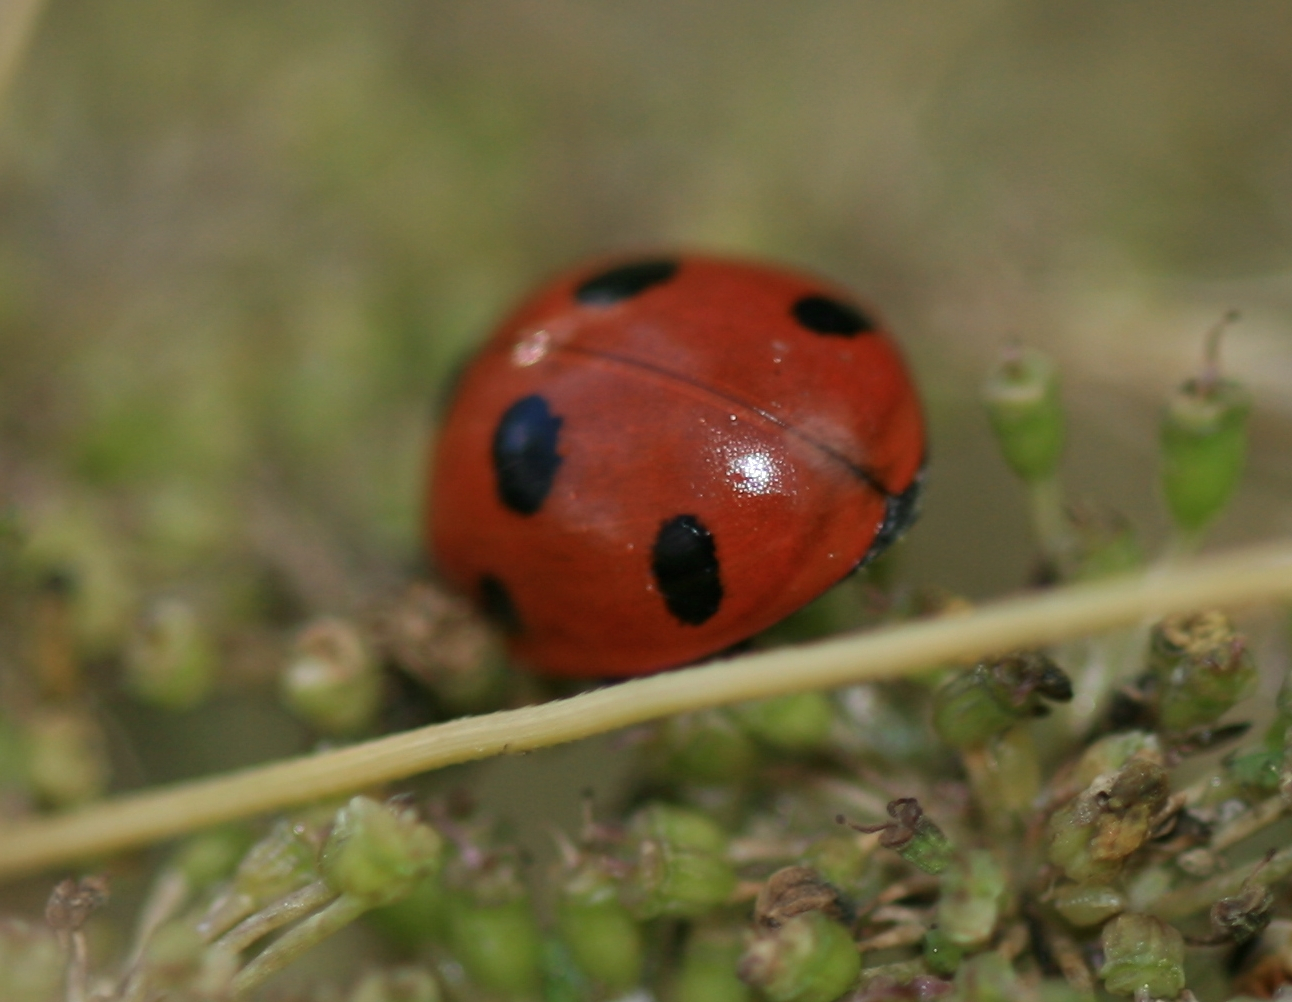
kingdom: Animalia
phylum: Arthropoda
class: Insecta
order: Coleoptera
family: Coccinellidae
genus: Coccinella
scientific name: Coccinella septempunctata
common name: Sevenspotted lady beetle
